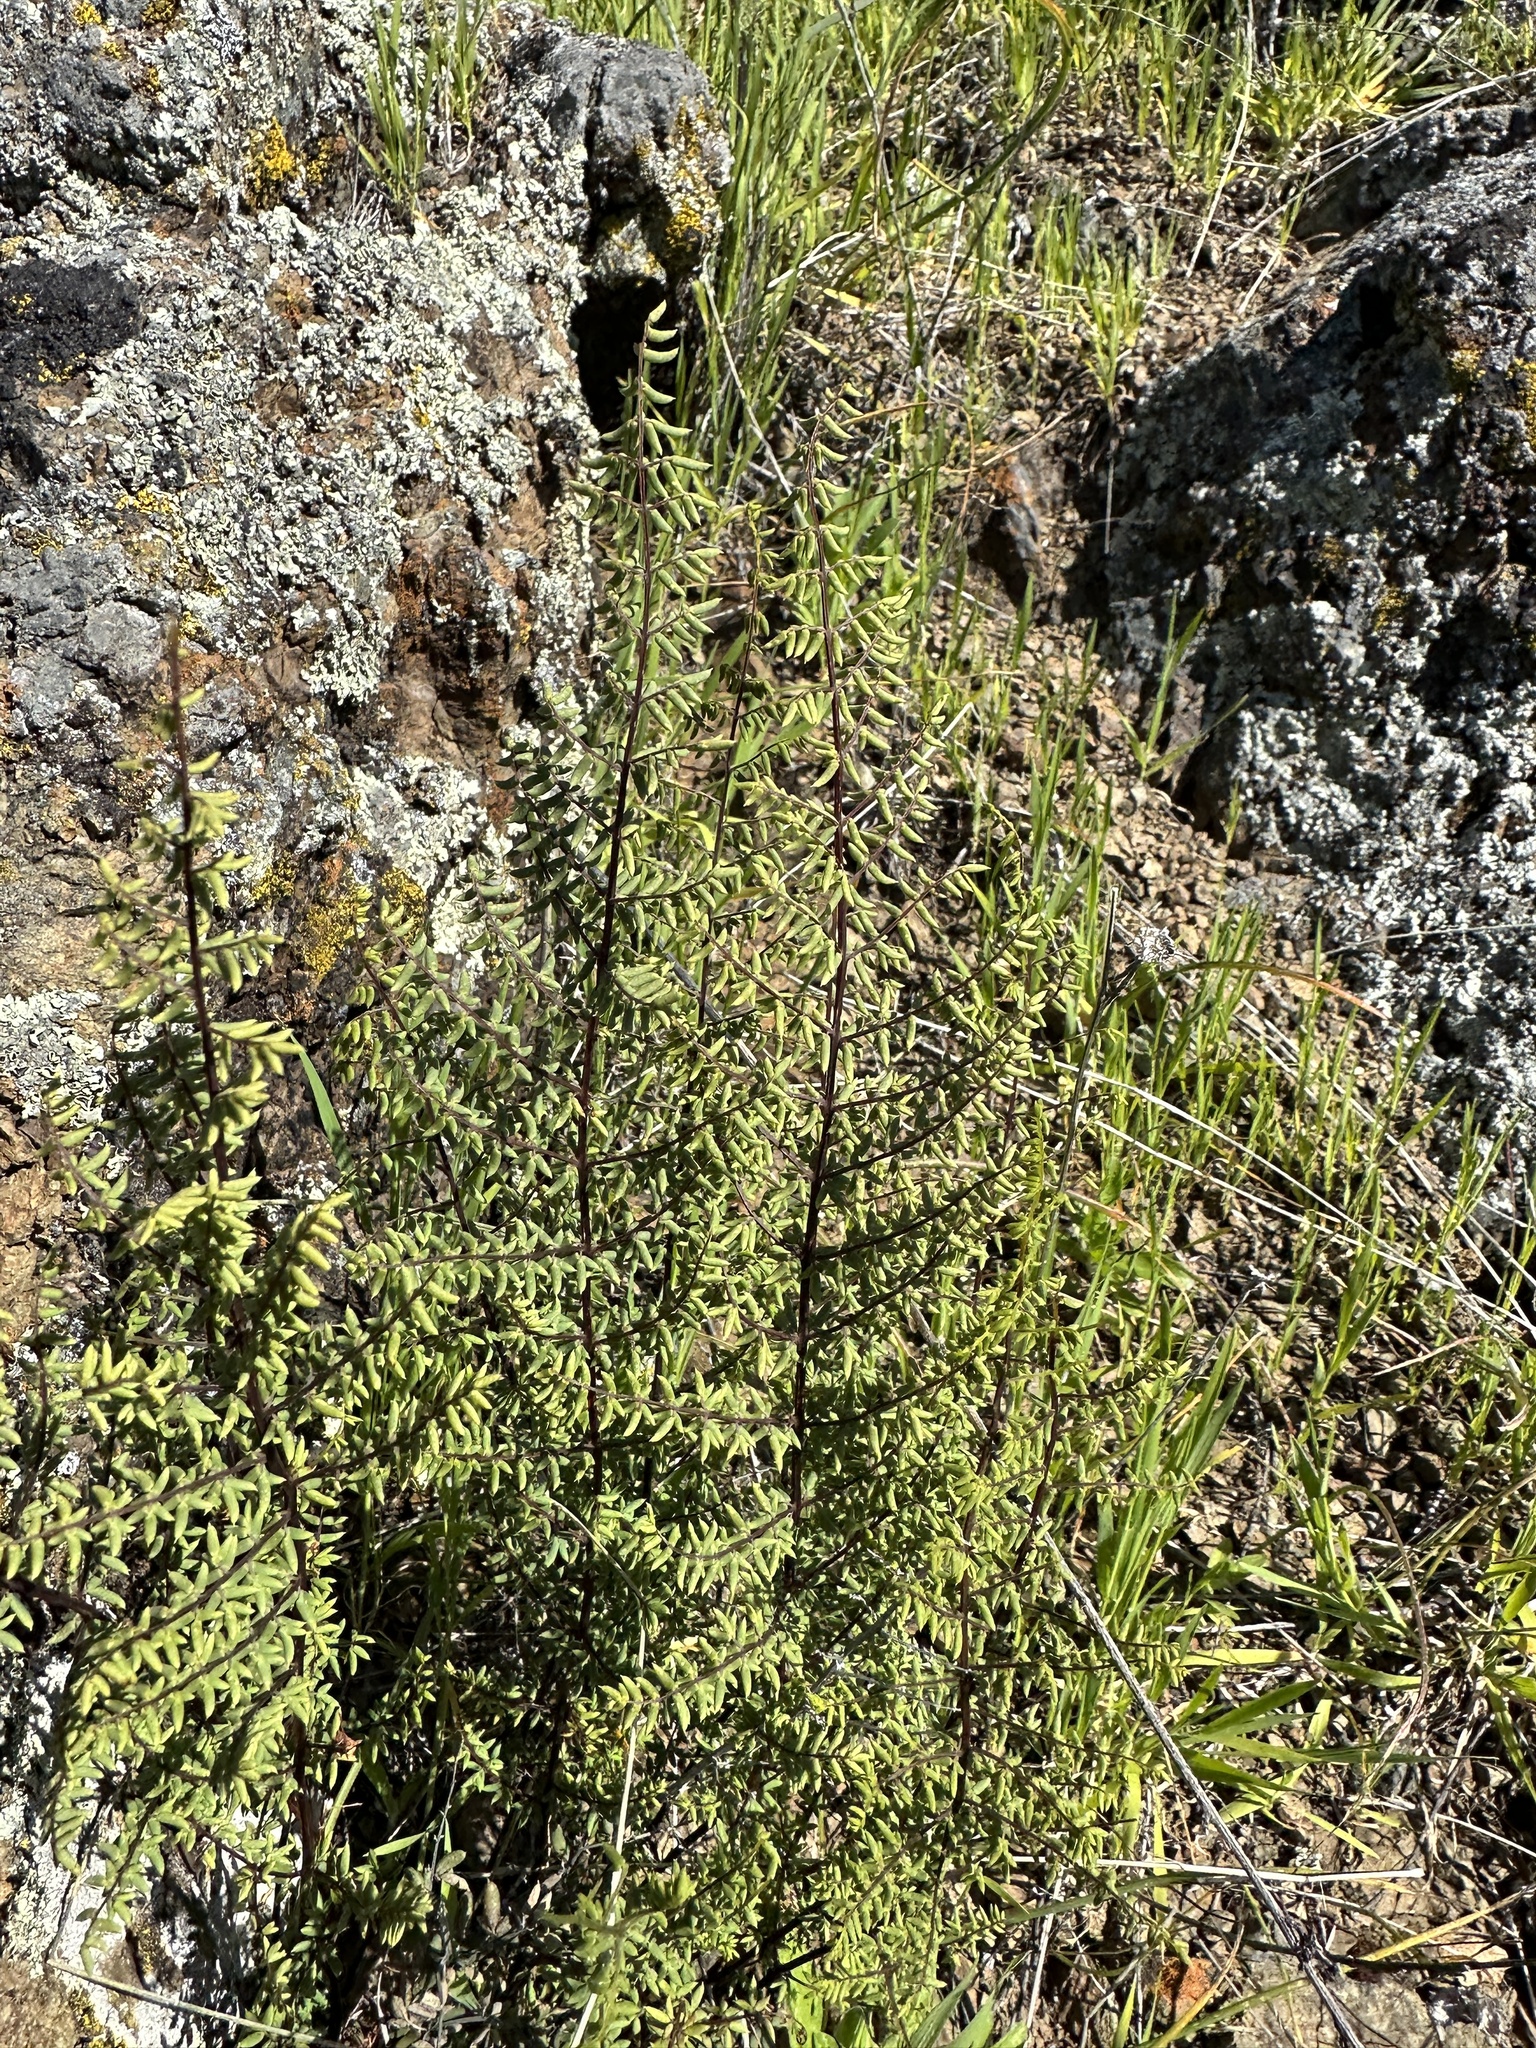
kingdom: Plantae
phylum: Tracheophyta
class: Polypodiopsida
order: Polypodiales
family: Pteridaceae
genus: Pellaea
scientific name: Pellaea mucronata
